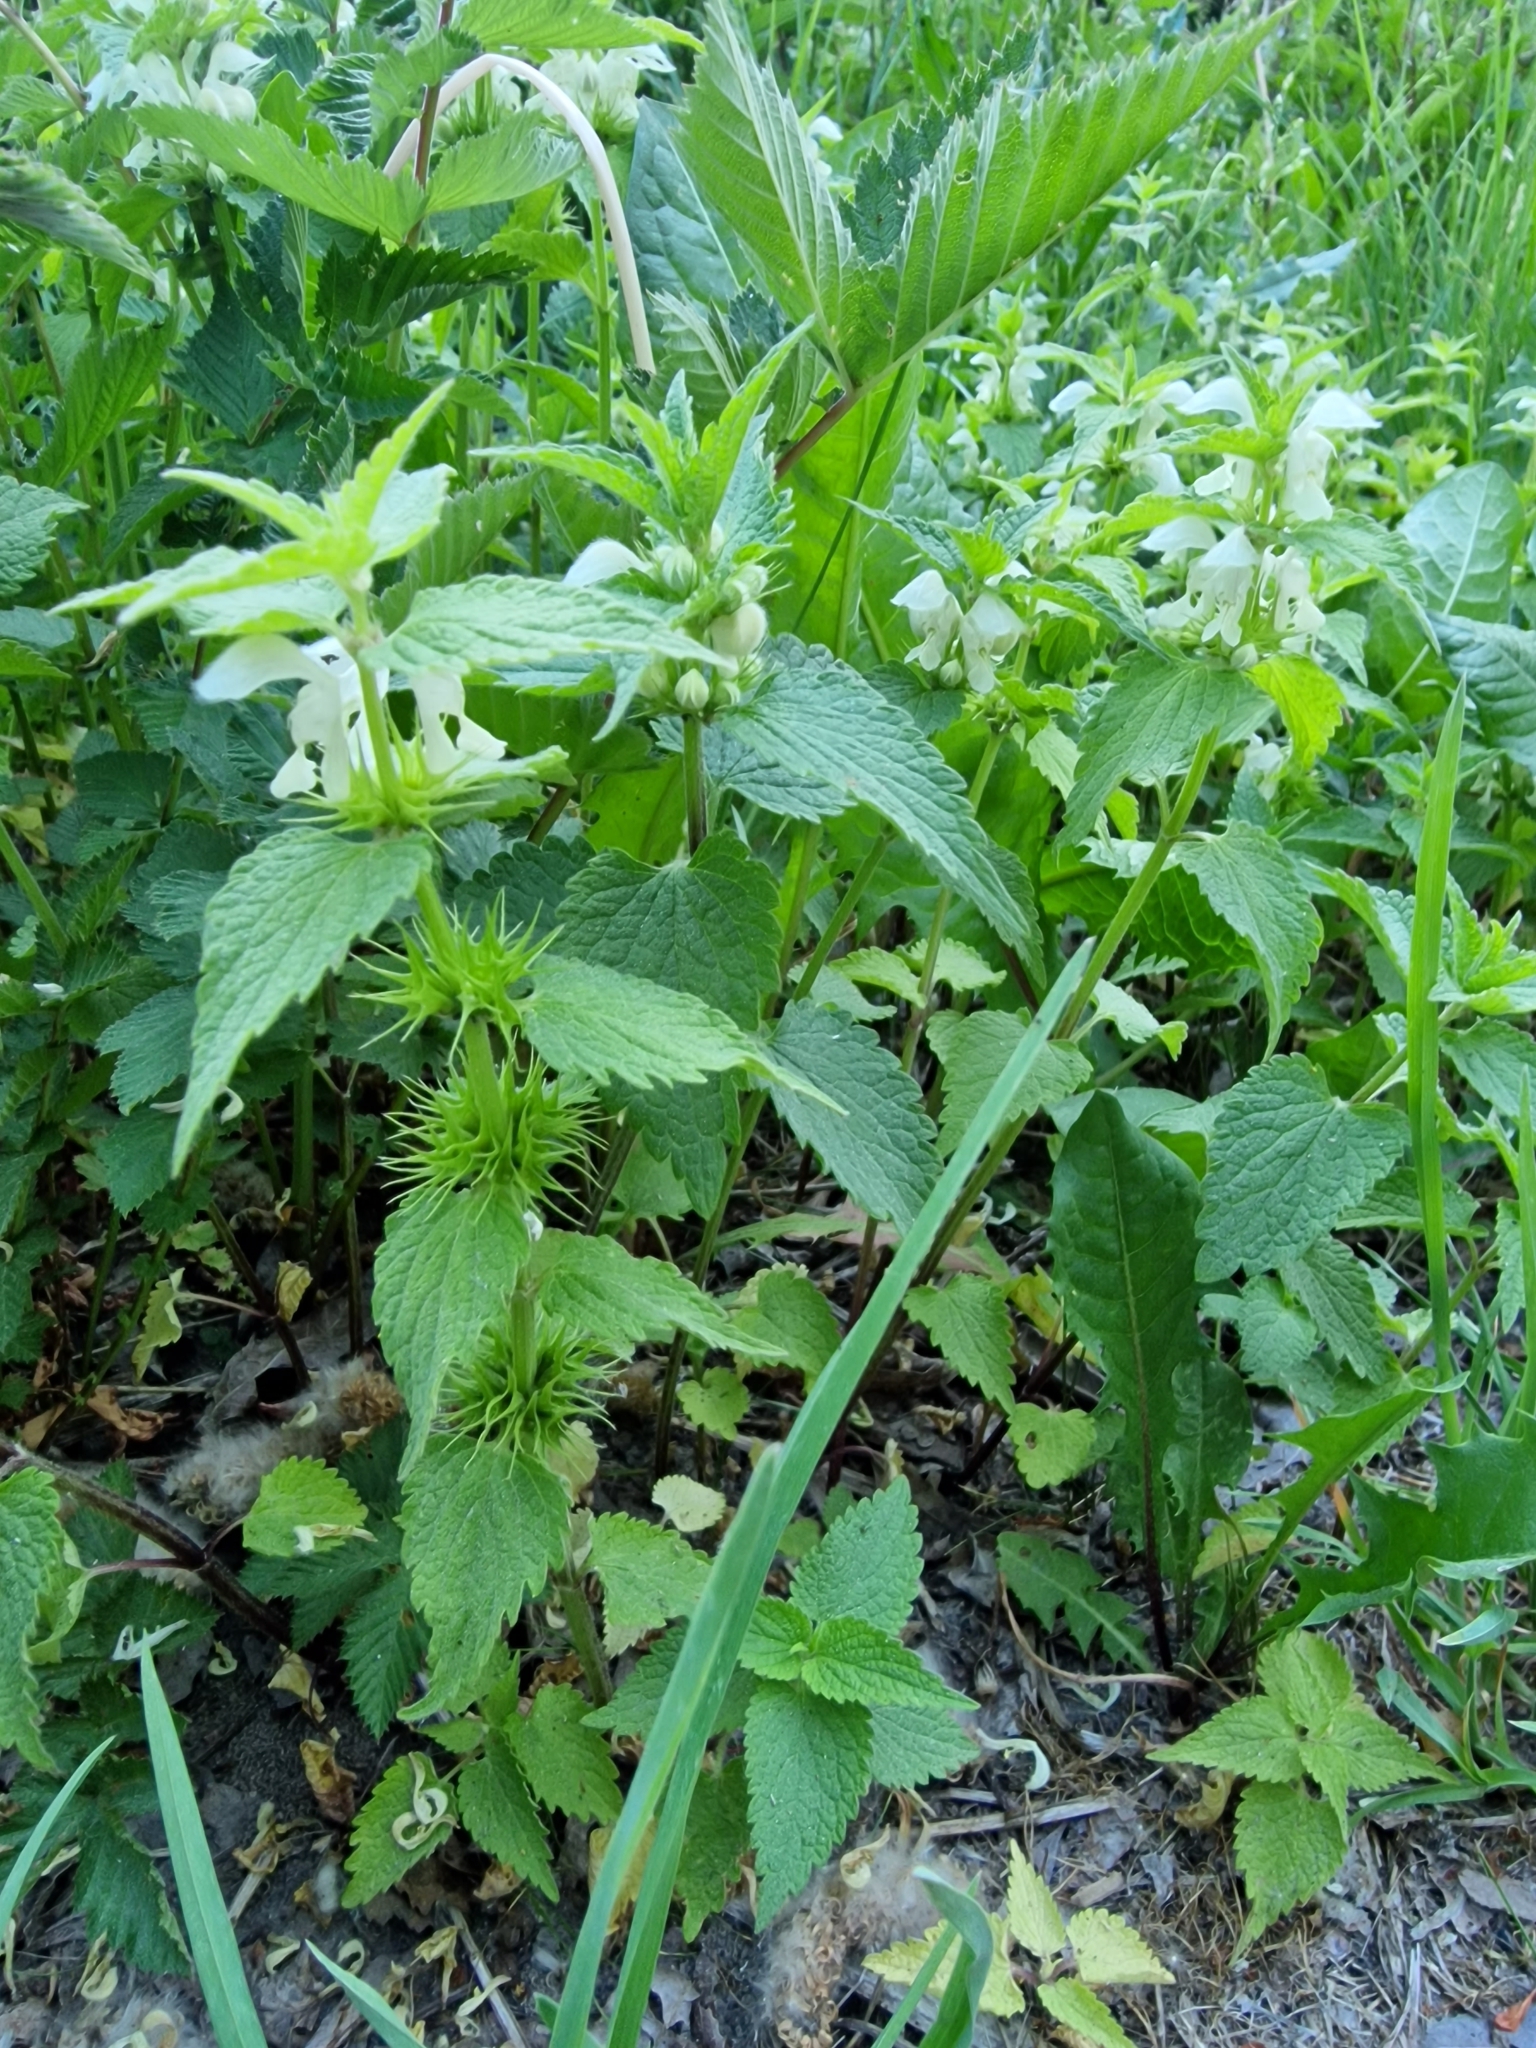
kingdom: Plantae
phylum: Tracheophyta
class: Magnoliopsida
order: Lamiales
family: Lamiaceae
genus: Lamium
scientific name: Lamium album
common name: White dead-nettle
